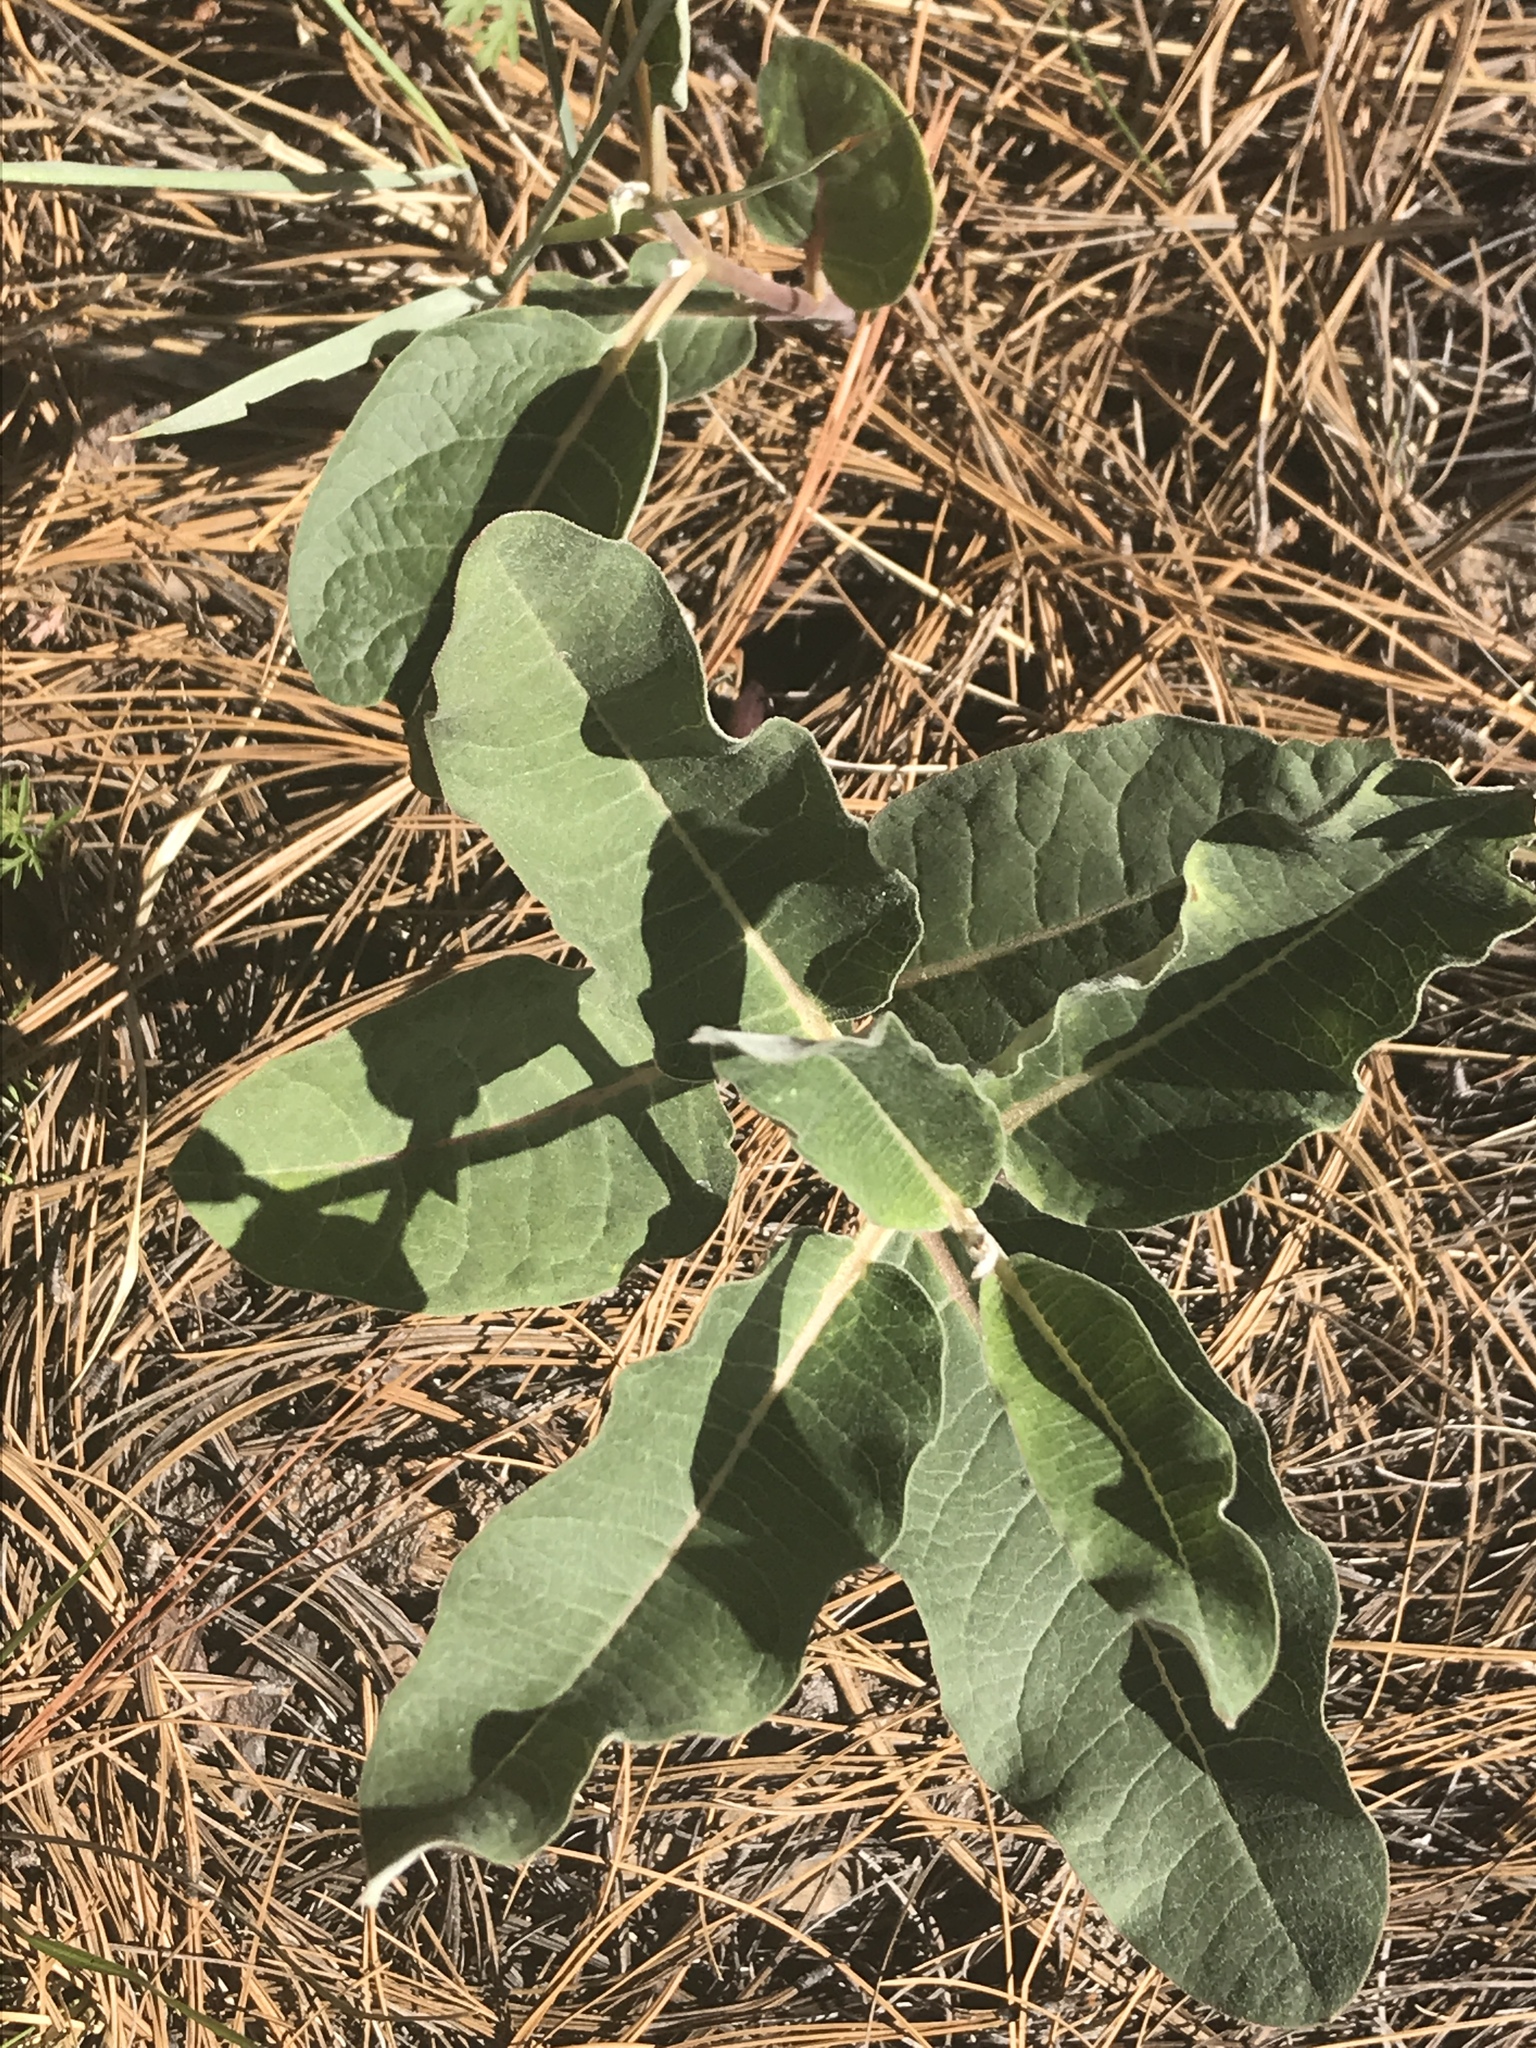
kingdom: Plantae
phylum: Tracheophyta
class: Magnoliopsida
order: Gentianales
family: Apocynaceae
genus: Asclepias
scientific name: Asclepias hypoleuca
